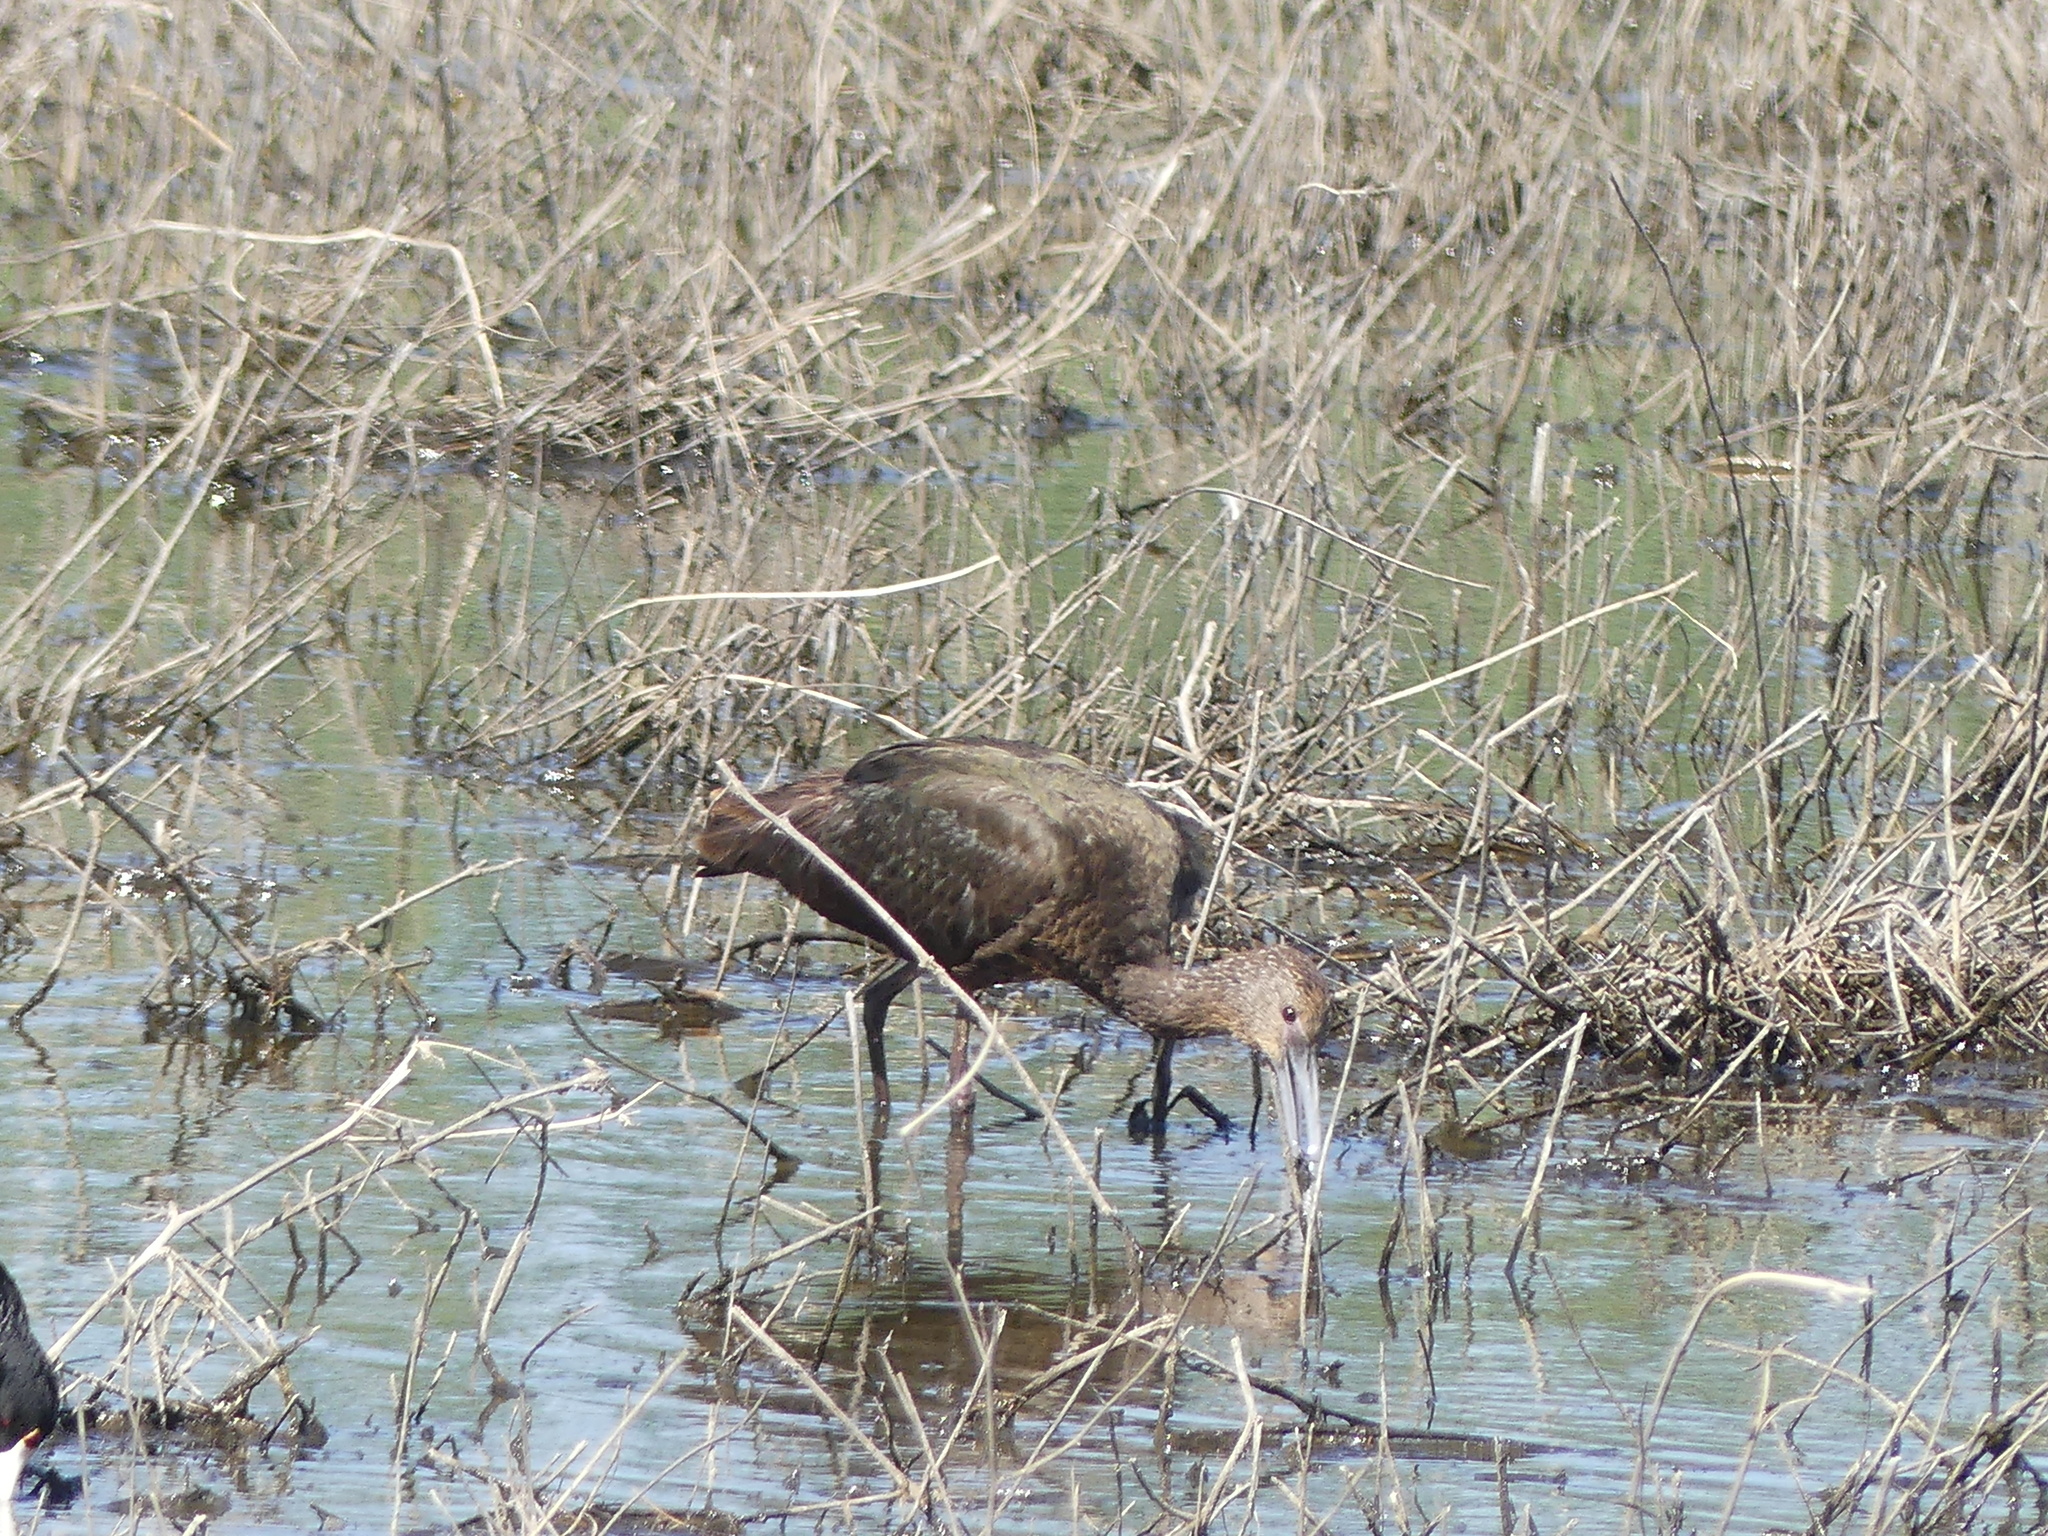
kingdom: Animalia
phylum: Chordata
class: Aves
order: Pelecaniformes
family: Threskiornithidae
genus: Plegadis
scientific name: Plegadis chihi
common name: White-faced ibis
